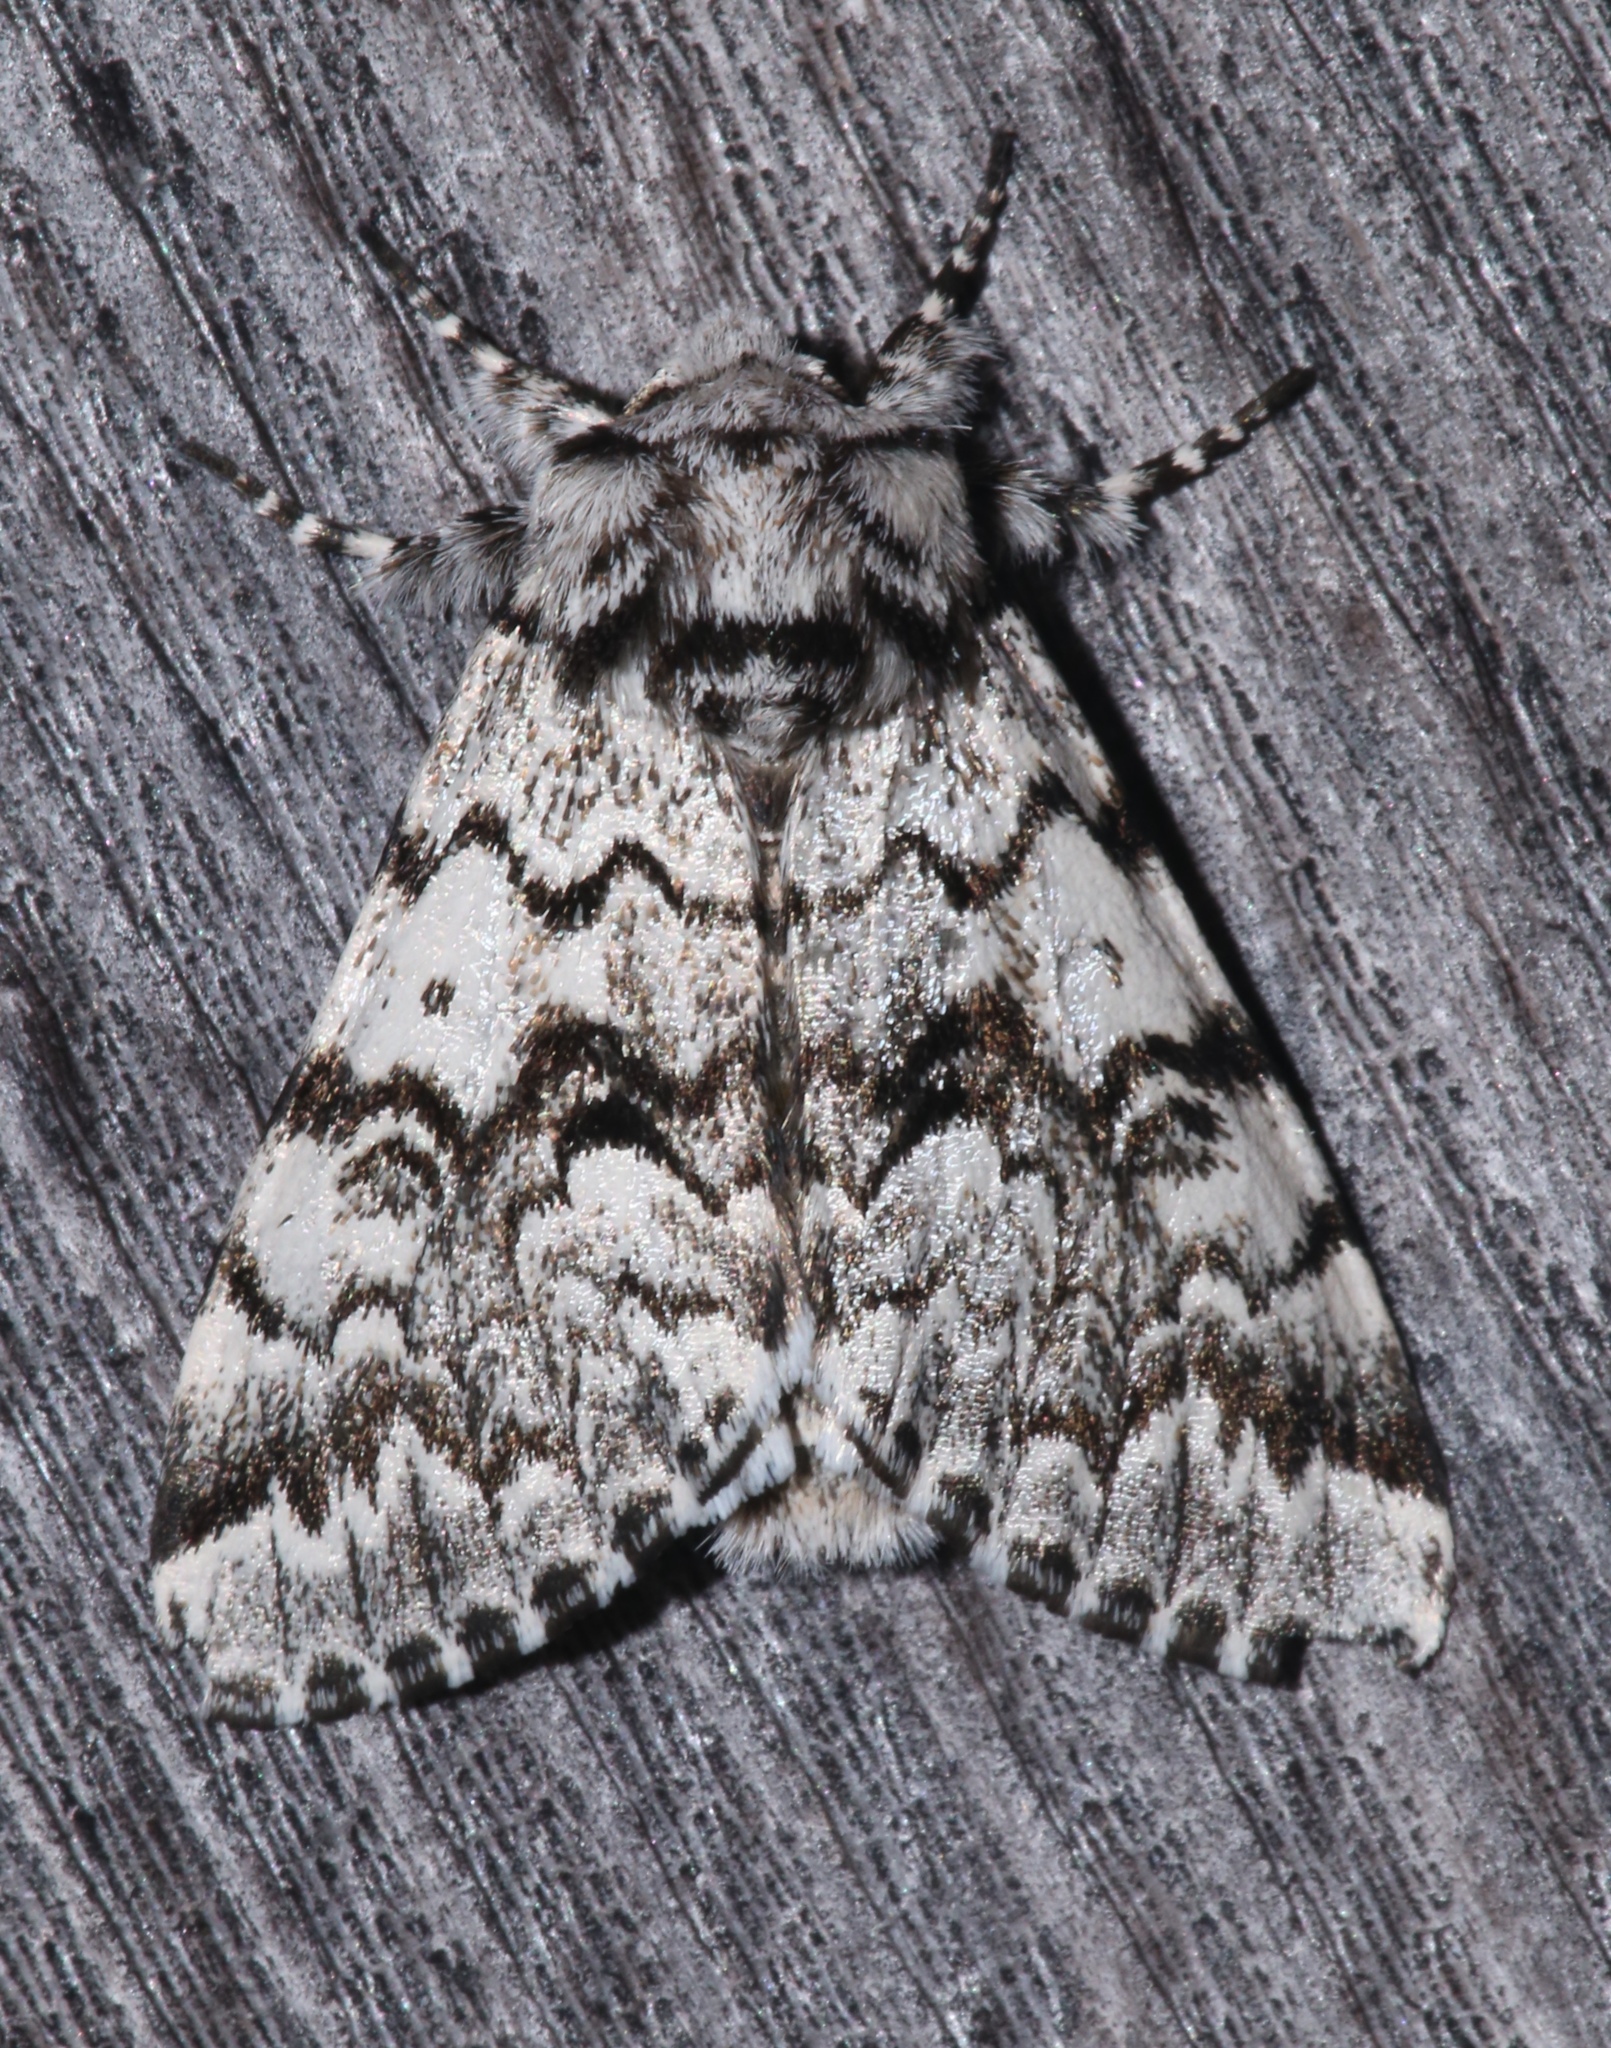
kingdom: Animalia
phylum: Arthropoda
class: Insecta
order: Lepidoptera
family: Noctuidae
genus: Panthea
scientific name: Panthea acronyctoides
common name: Black zigzag moth
